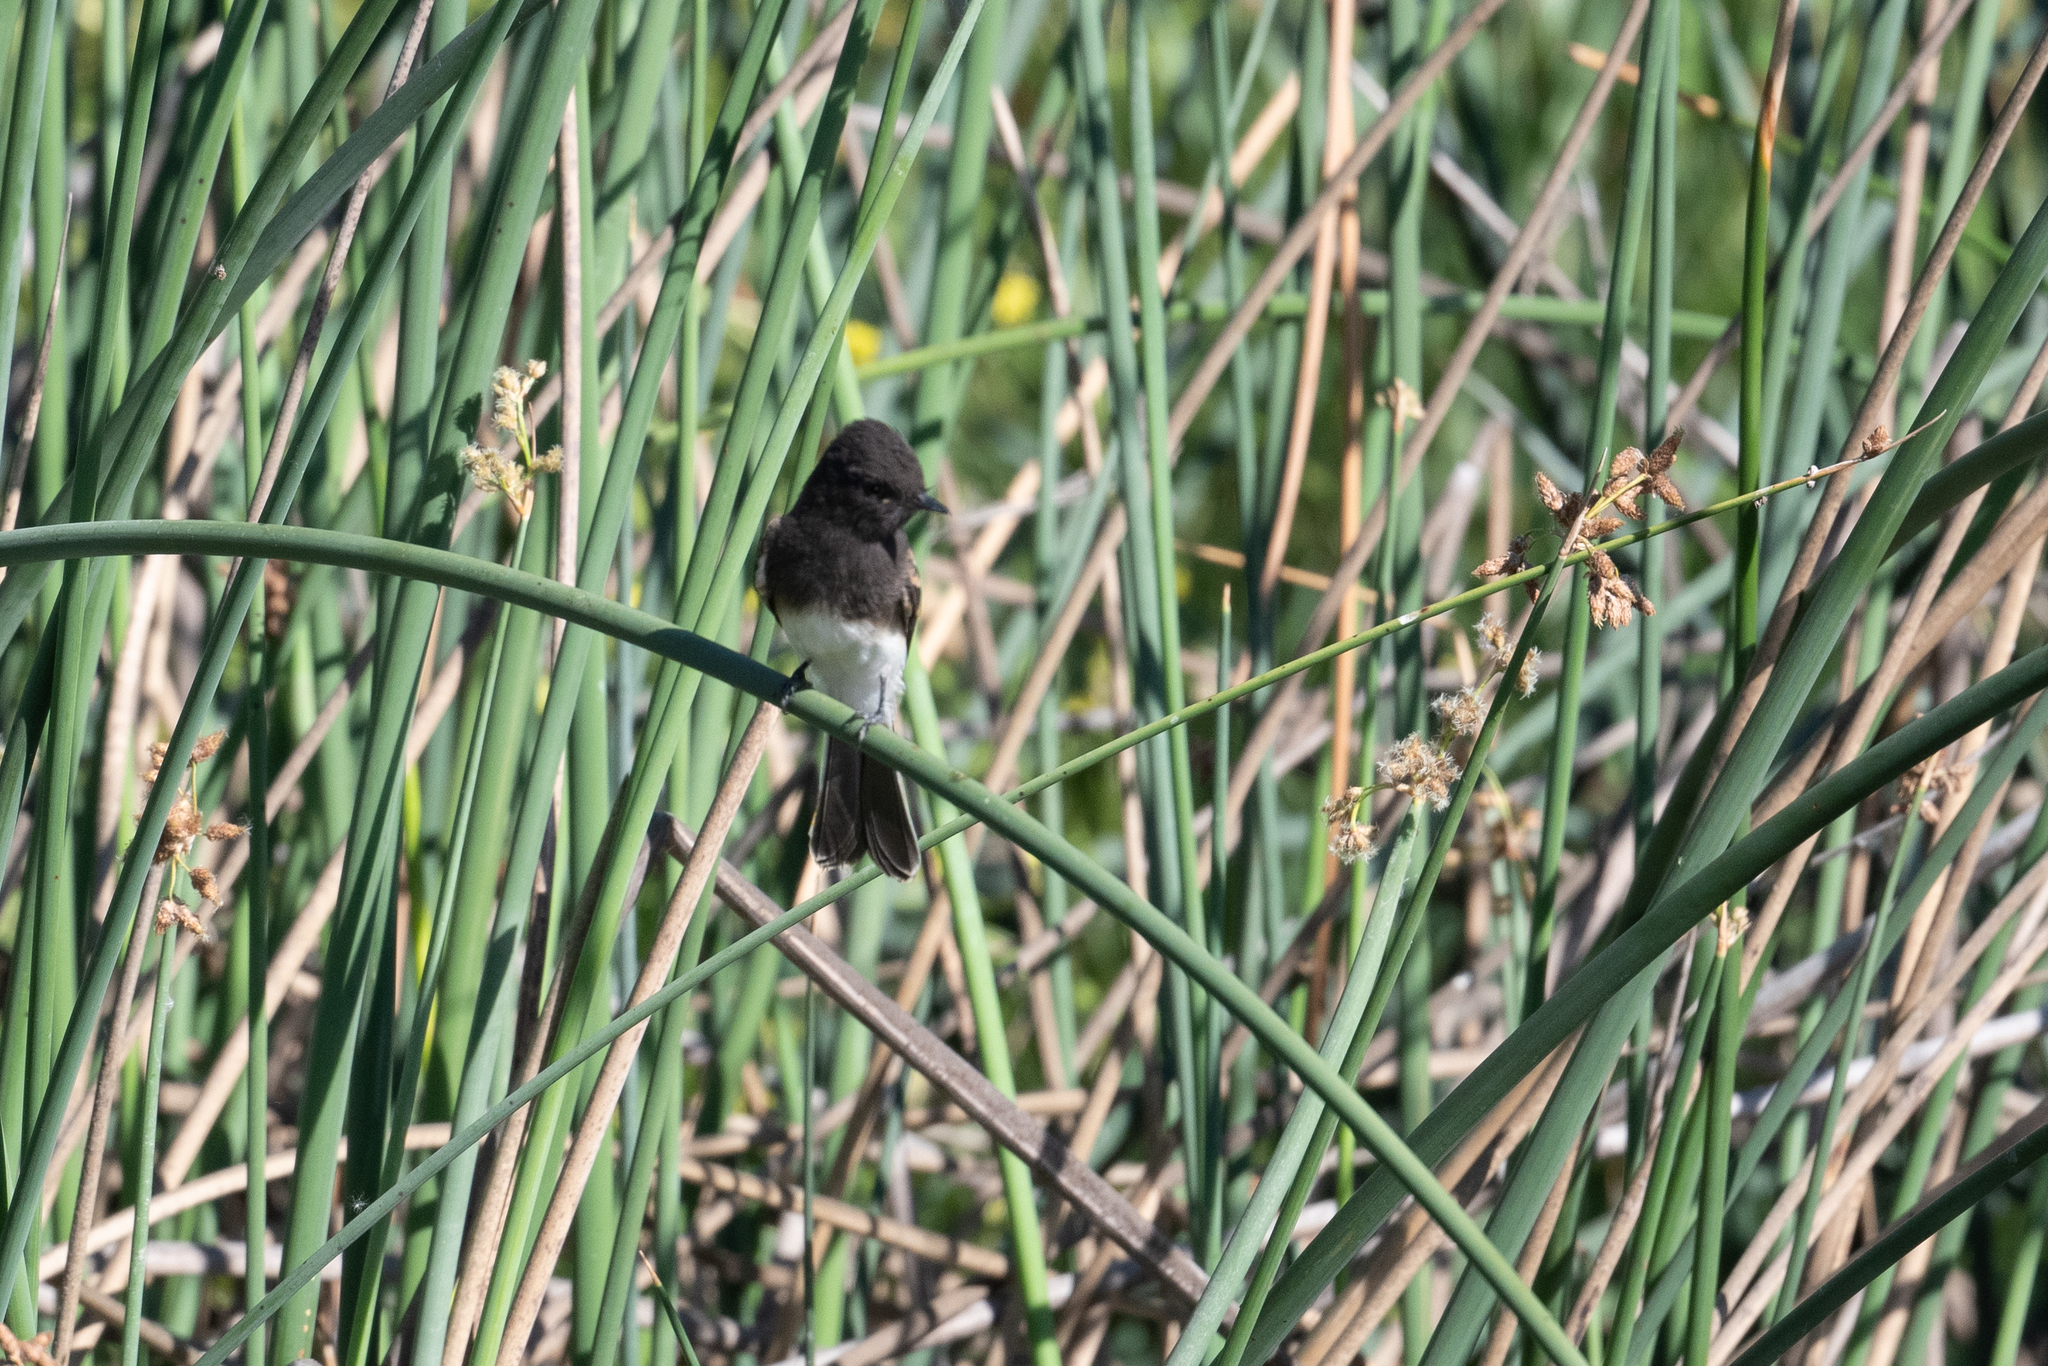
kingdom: Animalia
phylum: Chordata
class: Aves
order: Passeriformes
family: Tyrannidae
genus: Sayornis
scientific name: Sayornis nigricans
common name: Black phoebe
